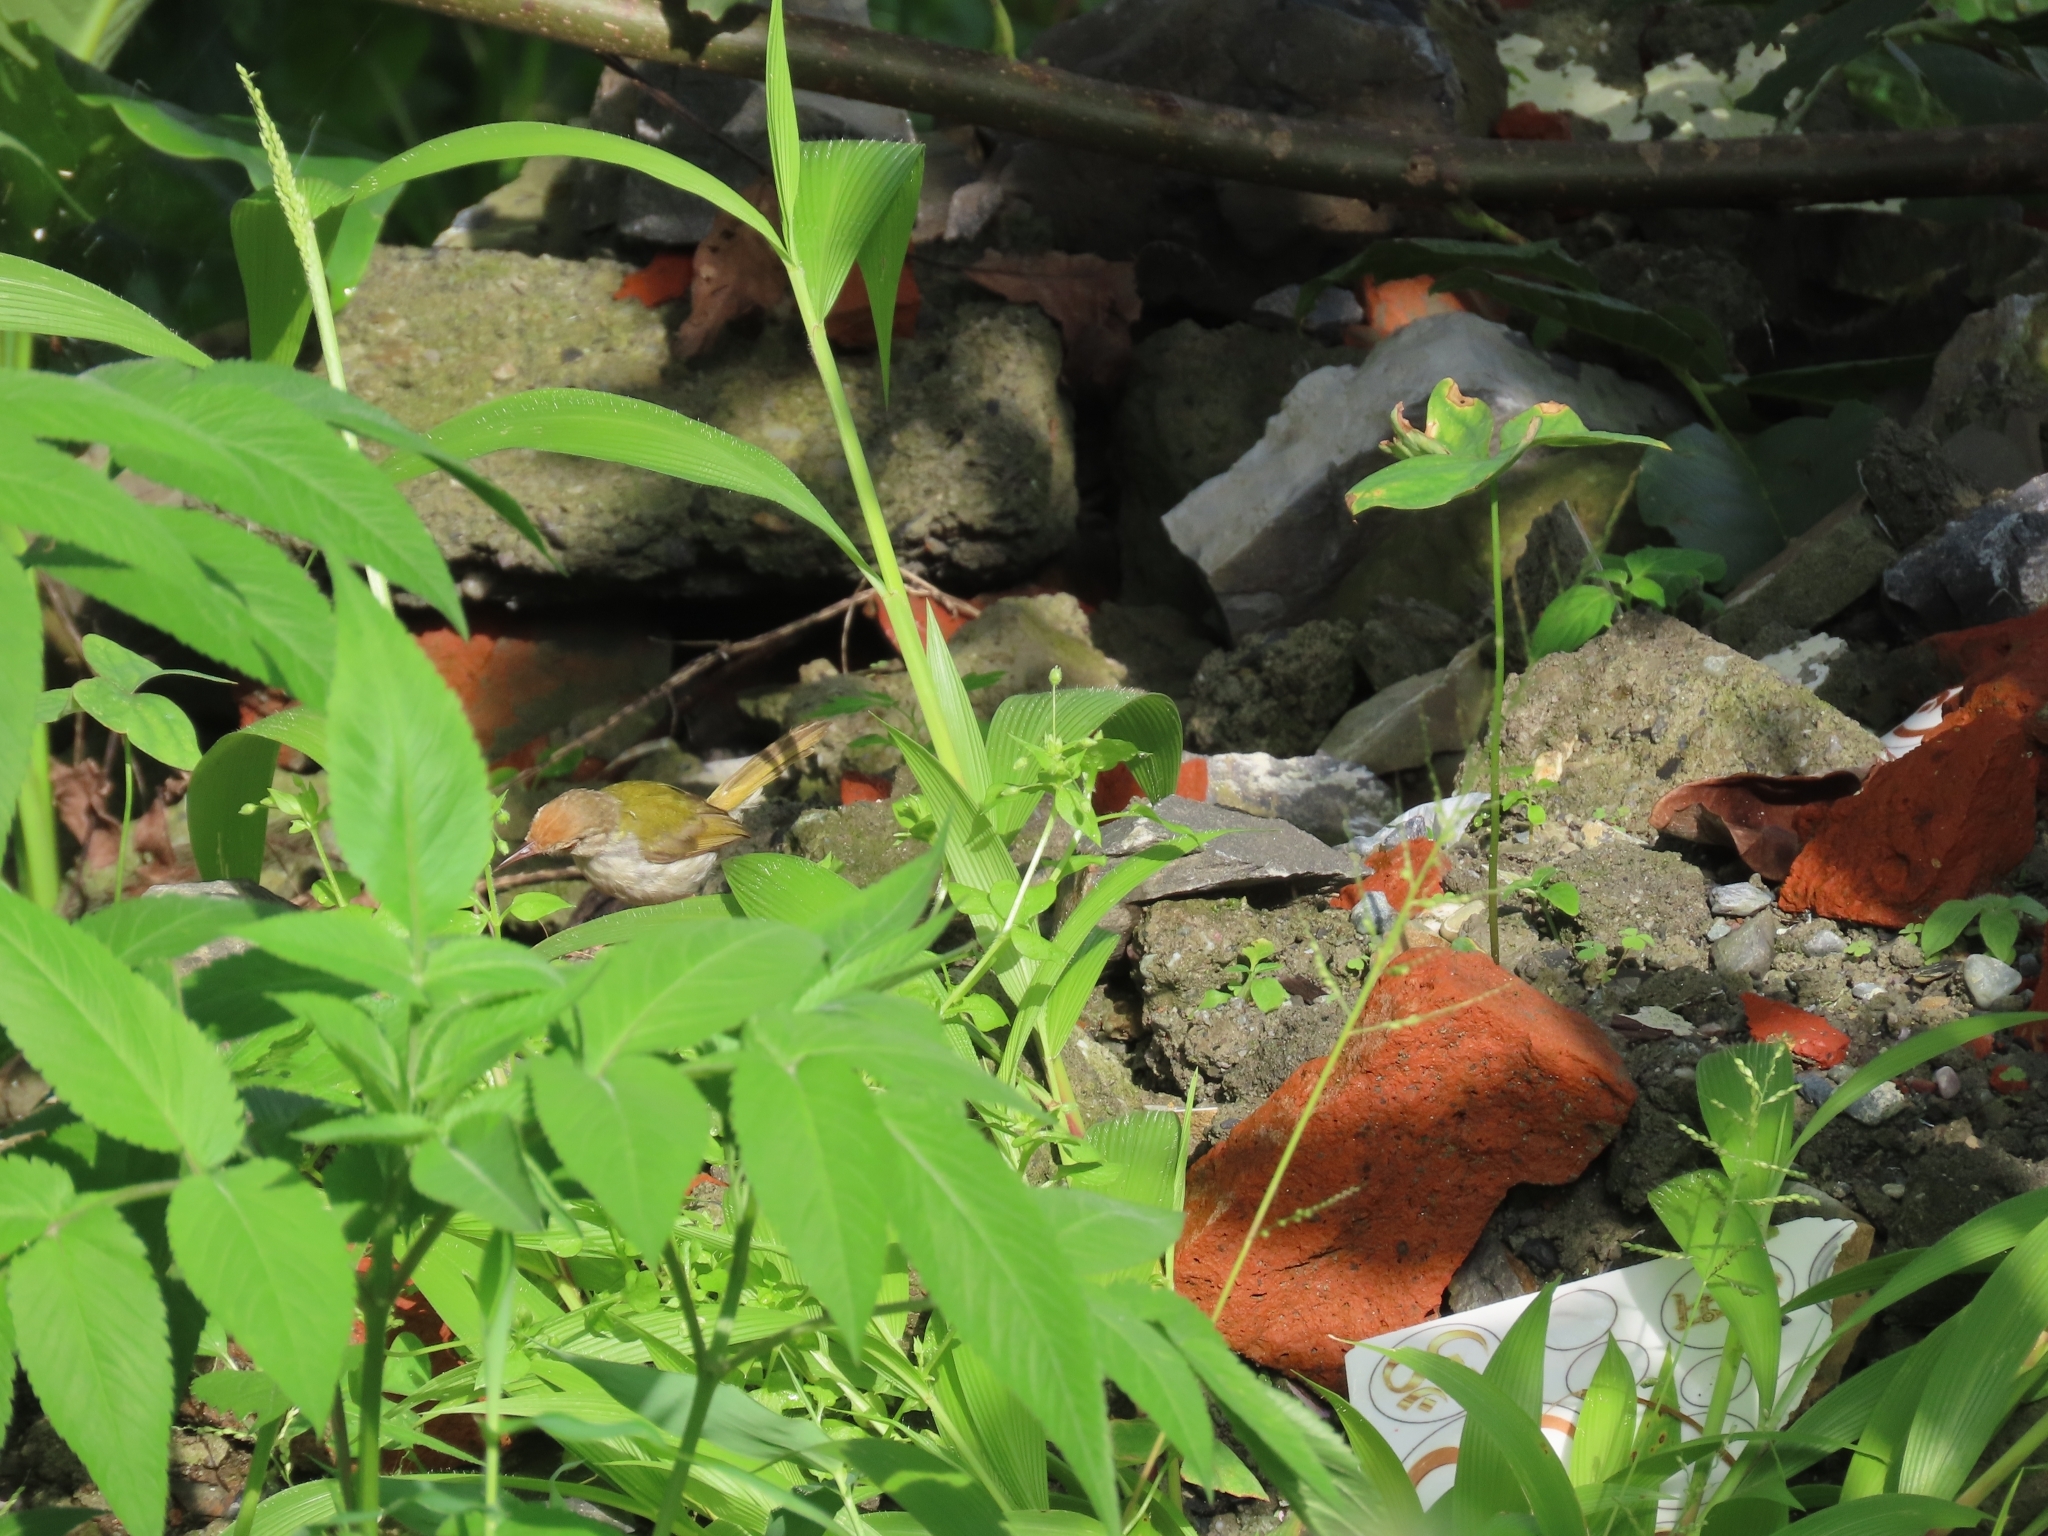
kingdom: Animalia
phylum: Chordata
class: Aves
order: Passeriformes
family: Cisticolidae
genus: Orthotomus
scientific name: Orthotomus sutorius
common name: Common tailorbird
